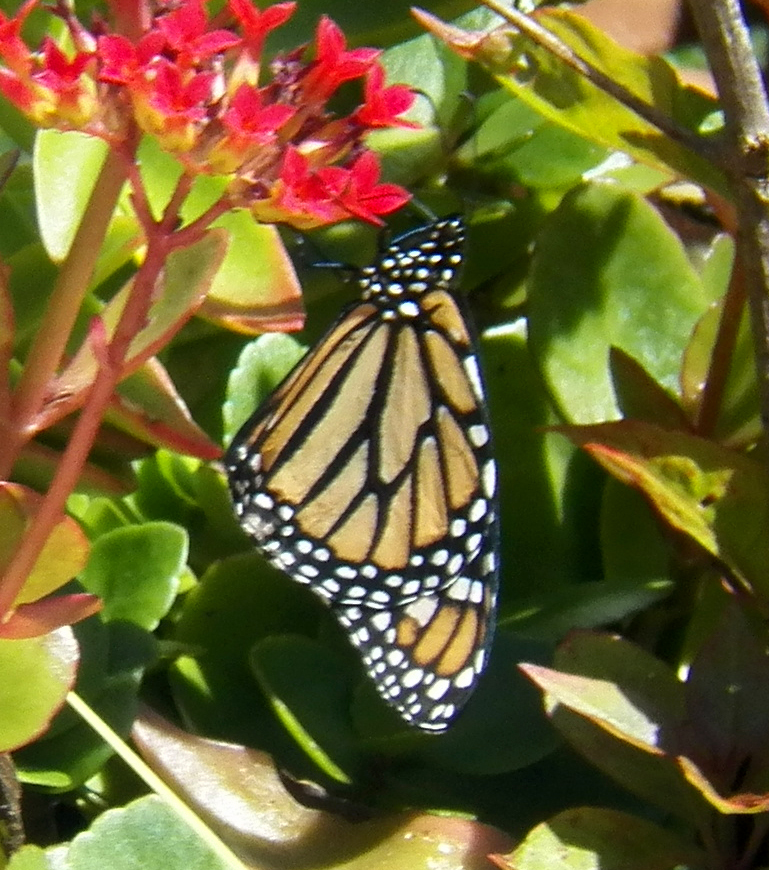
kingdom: Animalia
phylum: Arthropoda
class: Insecta
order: Lepidoptera
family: Nymphalidae
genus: Danaus
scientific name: Danaus plexippus
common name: Monarch
